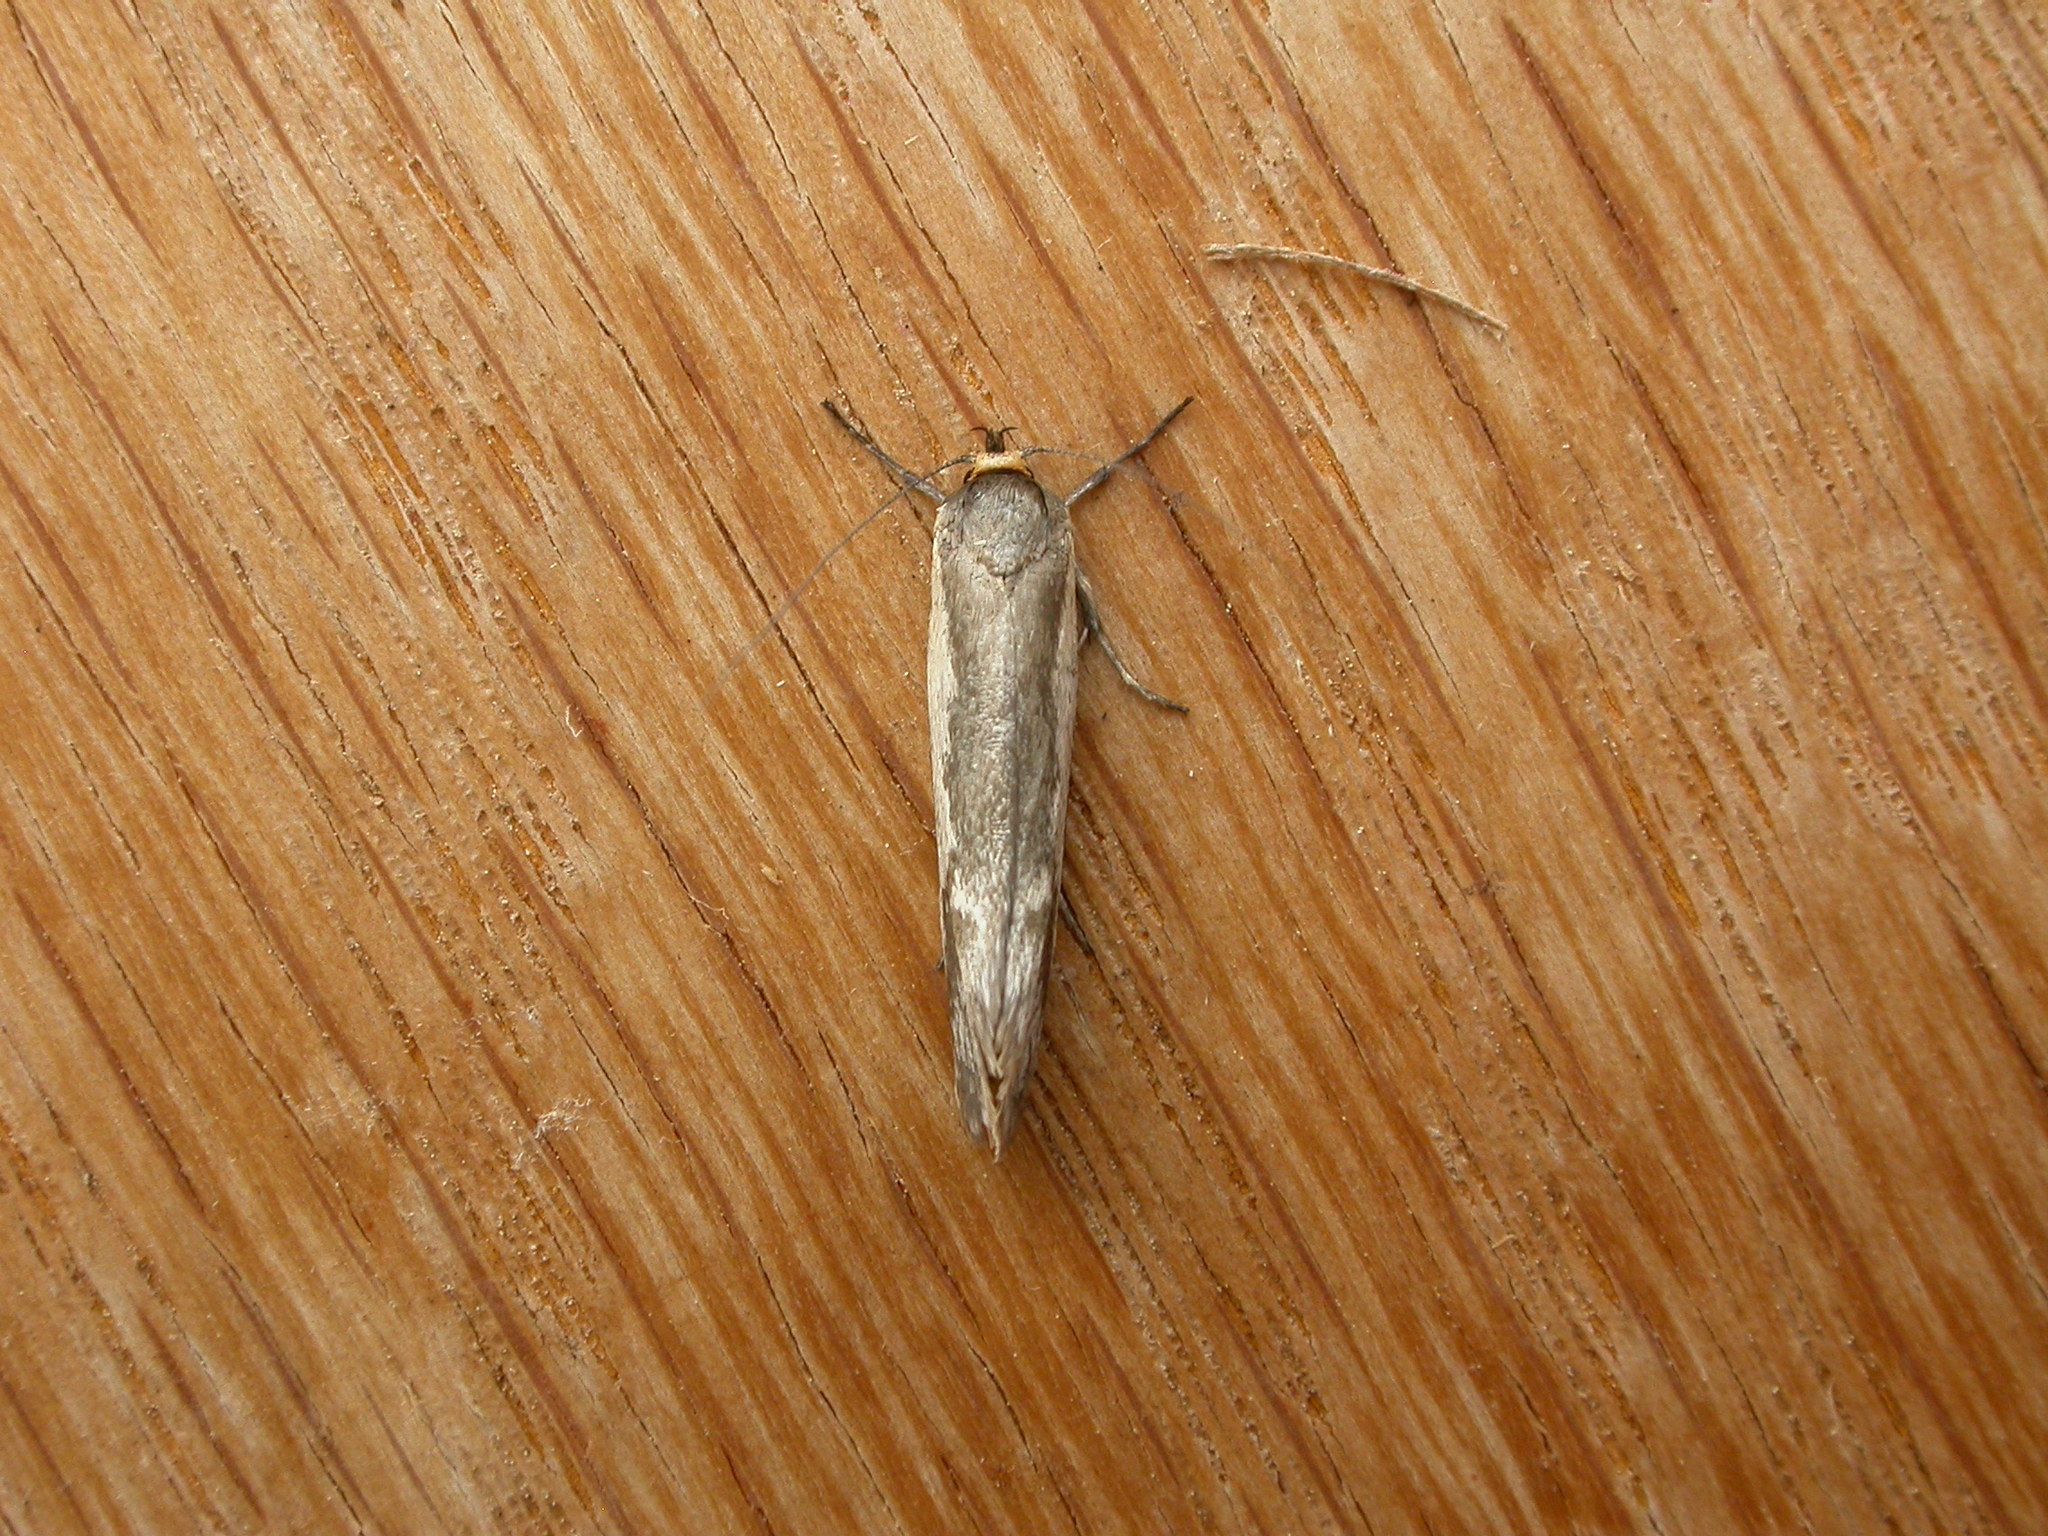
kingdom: Animalia
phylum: Arthropoda
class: Insecta
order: Lepidoptera
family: Oecophoridae
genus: Philobota
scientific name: Philobota ellenella
